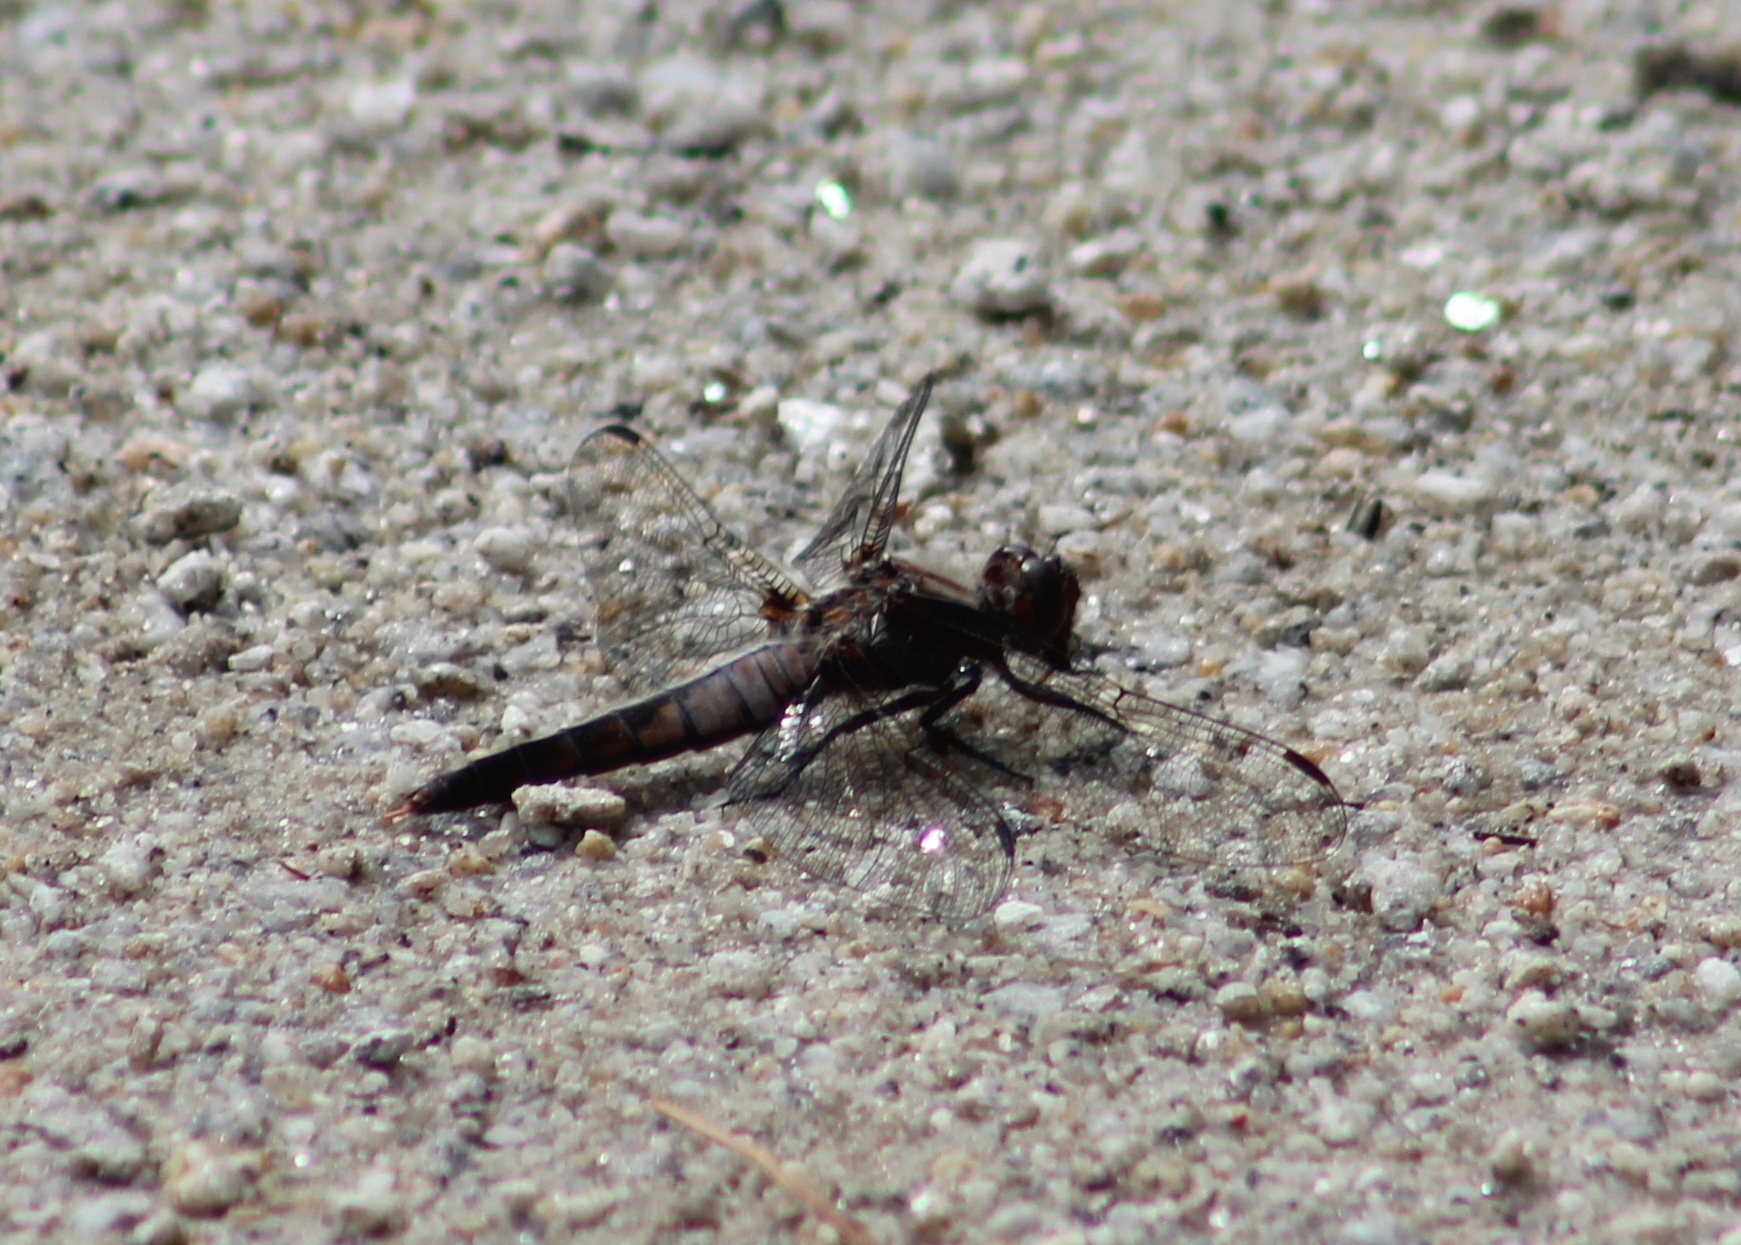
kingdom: Animalia
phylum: Arthropoda
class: Insecta
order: Odonata
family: Libellulidae
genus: Ladona
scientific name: Ladona julia
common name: Chalk-fronted corporal
